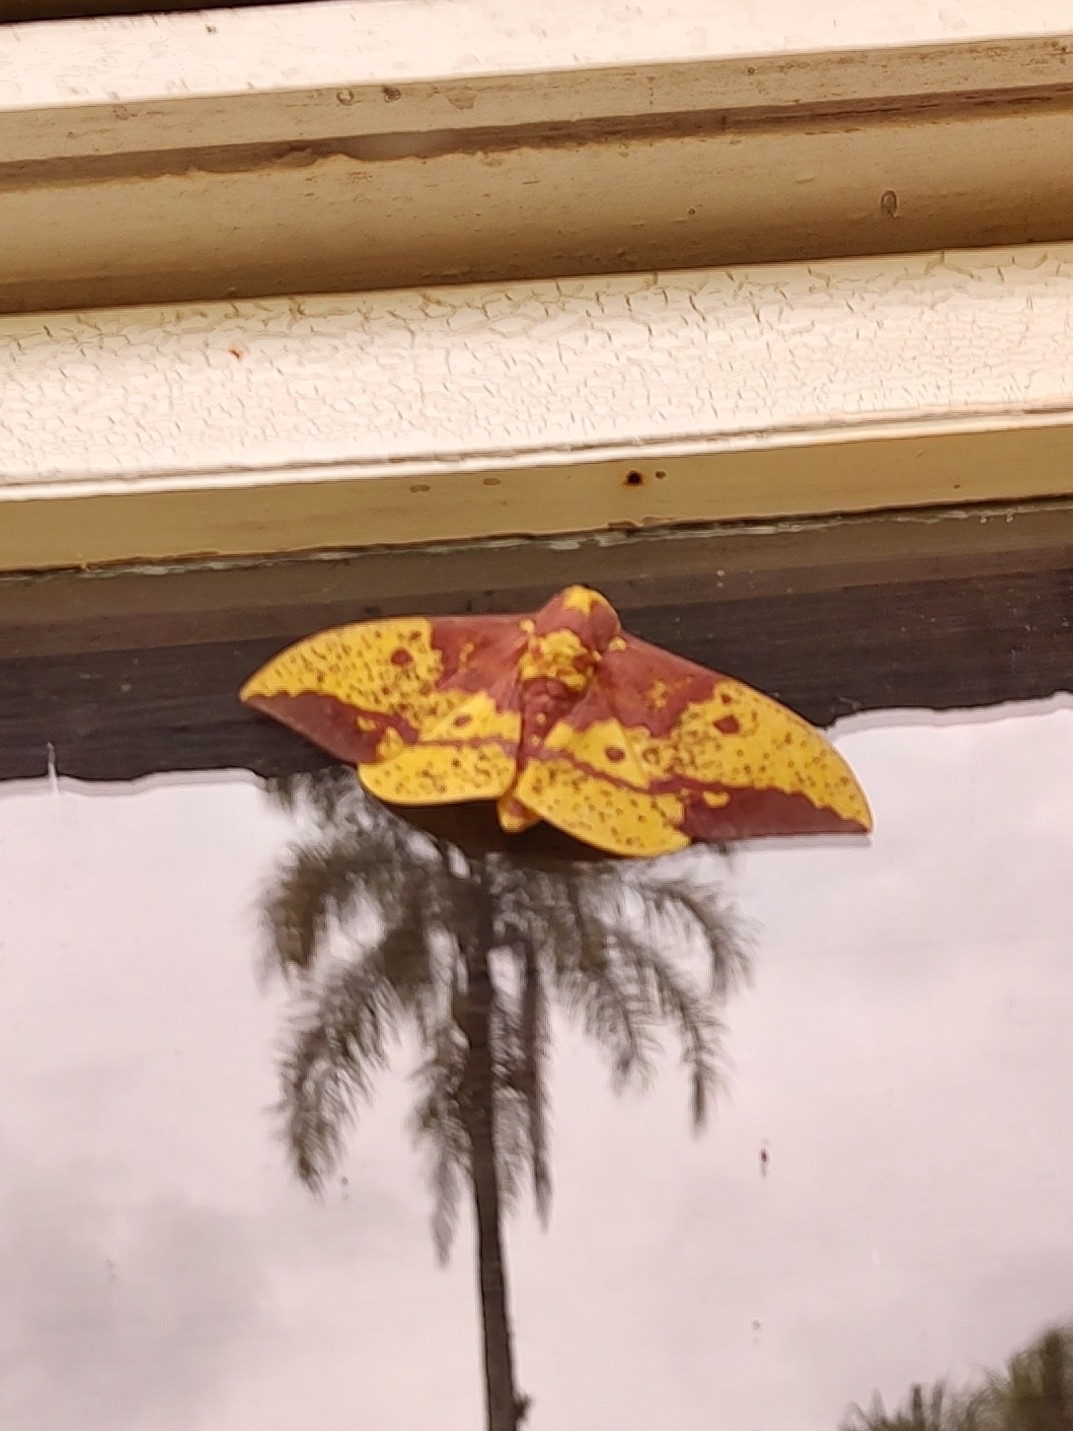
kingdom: Animalia
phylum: Arthropoda
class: Insecta
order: Lepidoptera
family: Saturniidae
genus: Eacles
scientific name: Eacles imperialis
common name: Imperial moth
